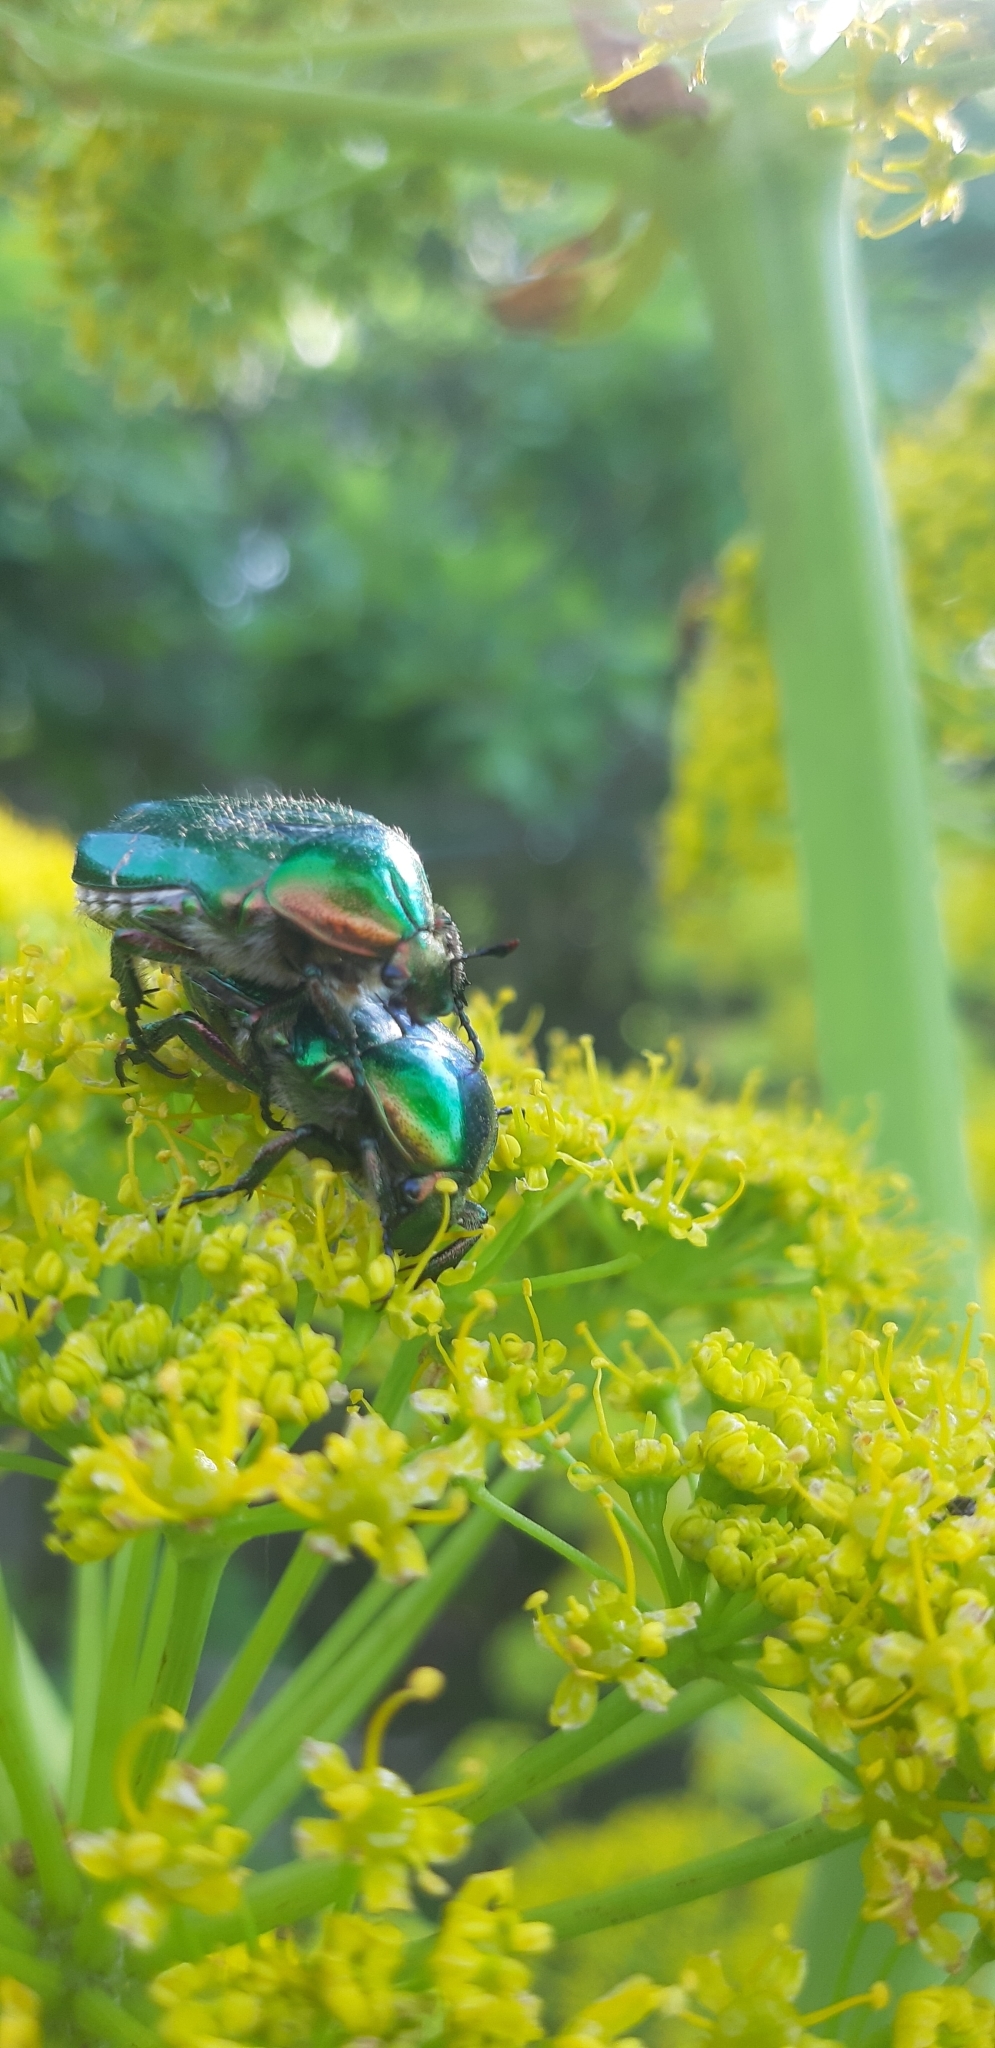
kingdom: Animalia
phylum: Arthropoda
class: Insecta
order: Coleoptera
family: Scarabaeidae
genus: Cetonia
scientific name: Cetonia aurata
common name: Rose chafer
